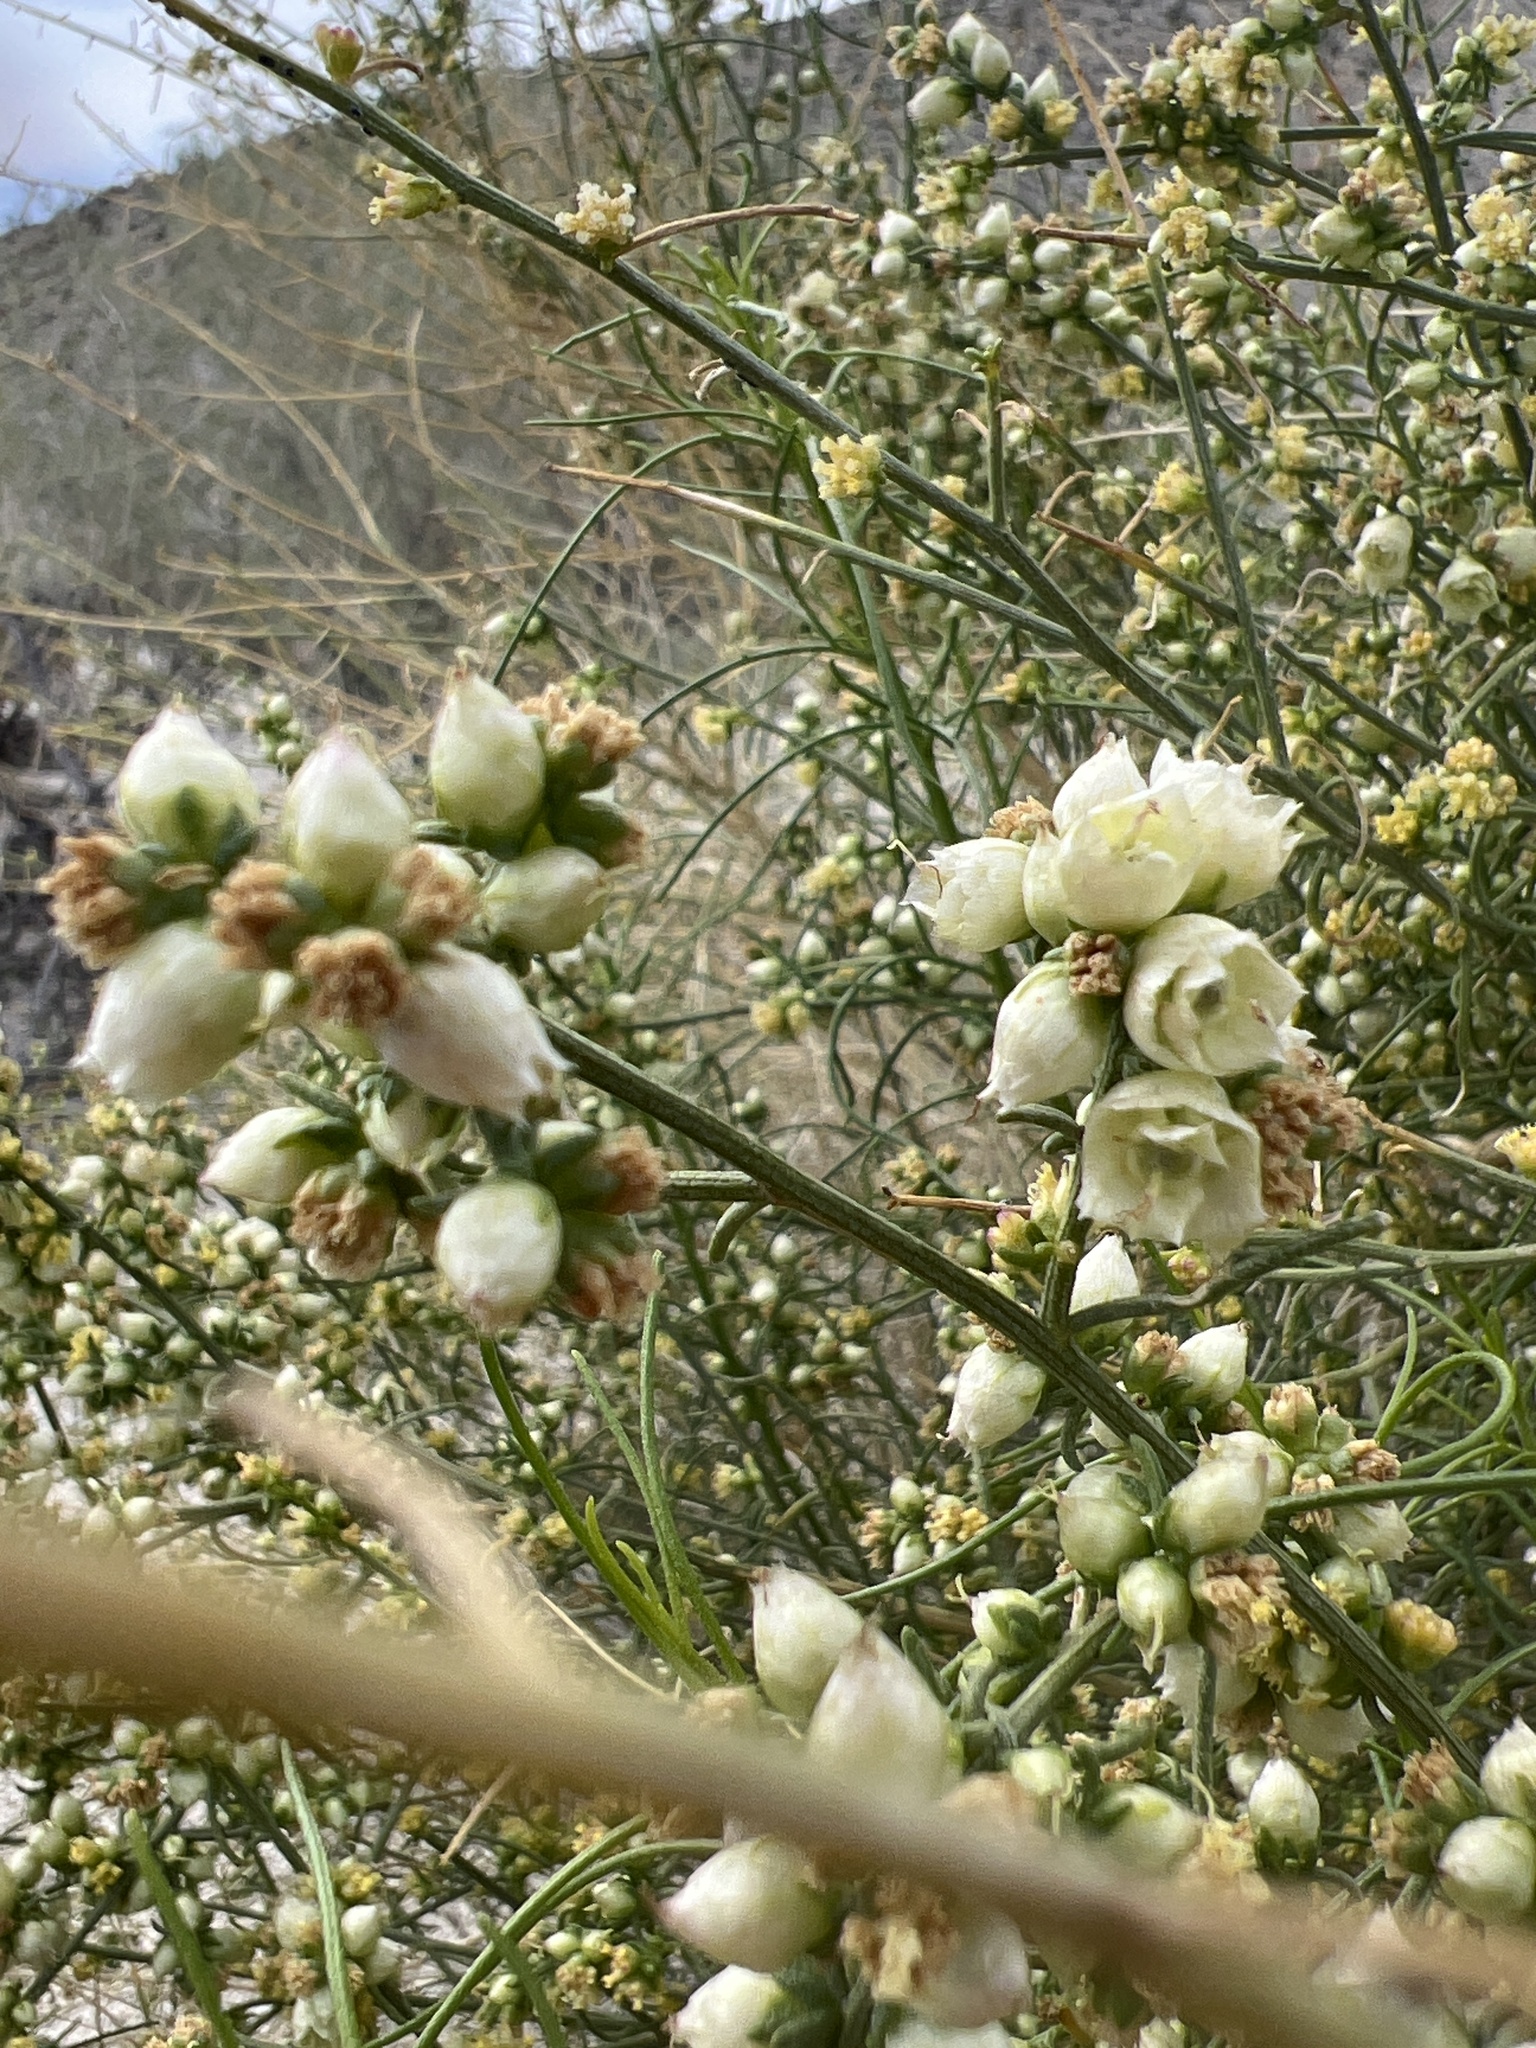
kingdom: Plantae
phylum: Tracheophyta
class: Magnoliopsida
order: Asterales
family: Asteraceae
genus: Ambrosia
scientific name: Ambrosia salsola
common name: Burrobrush
